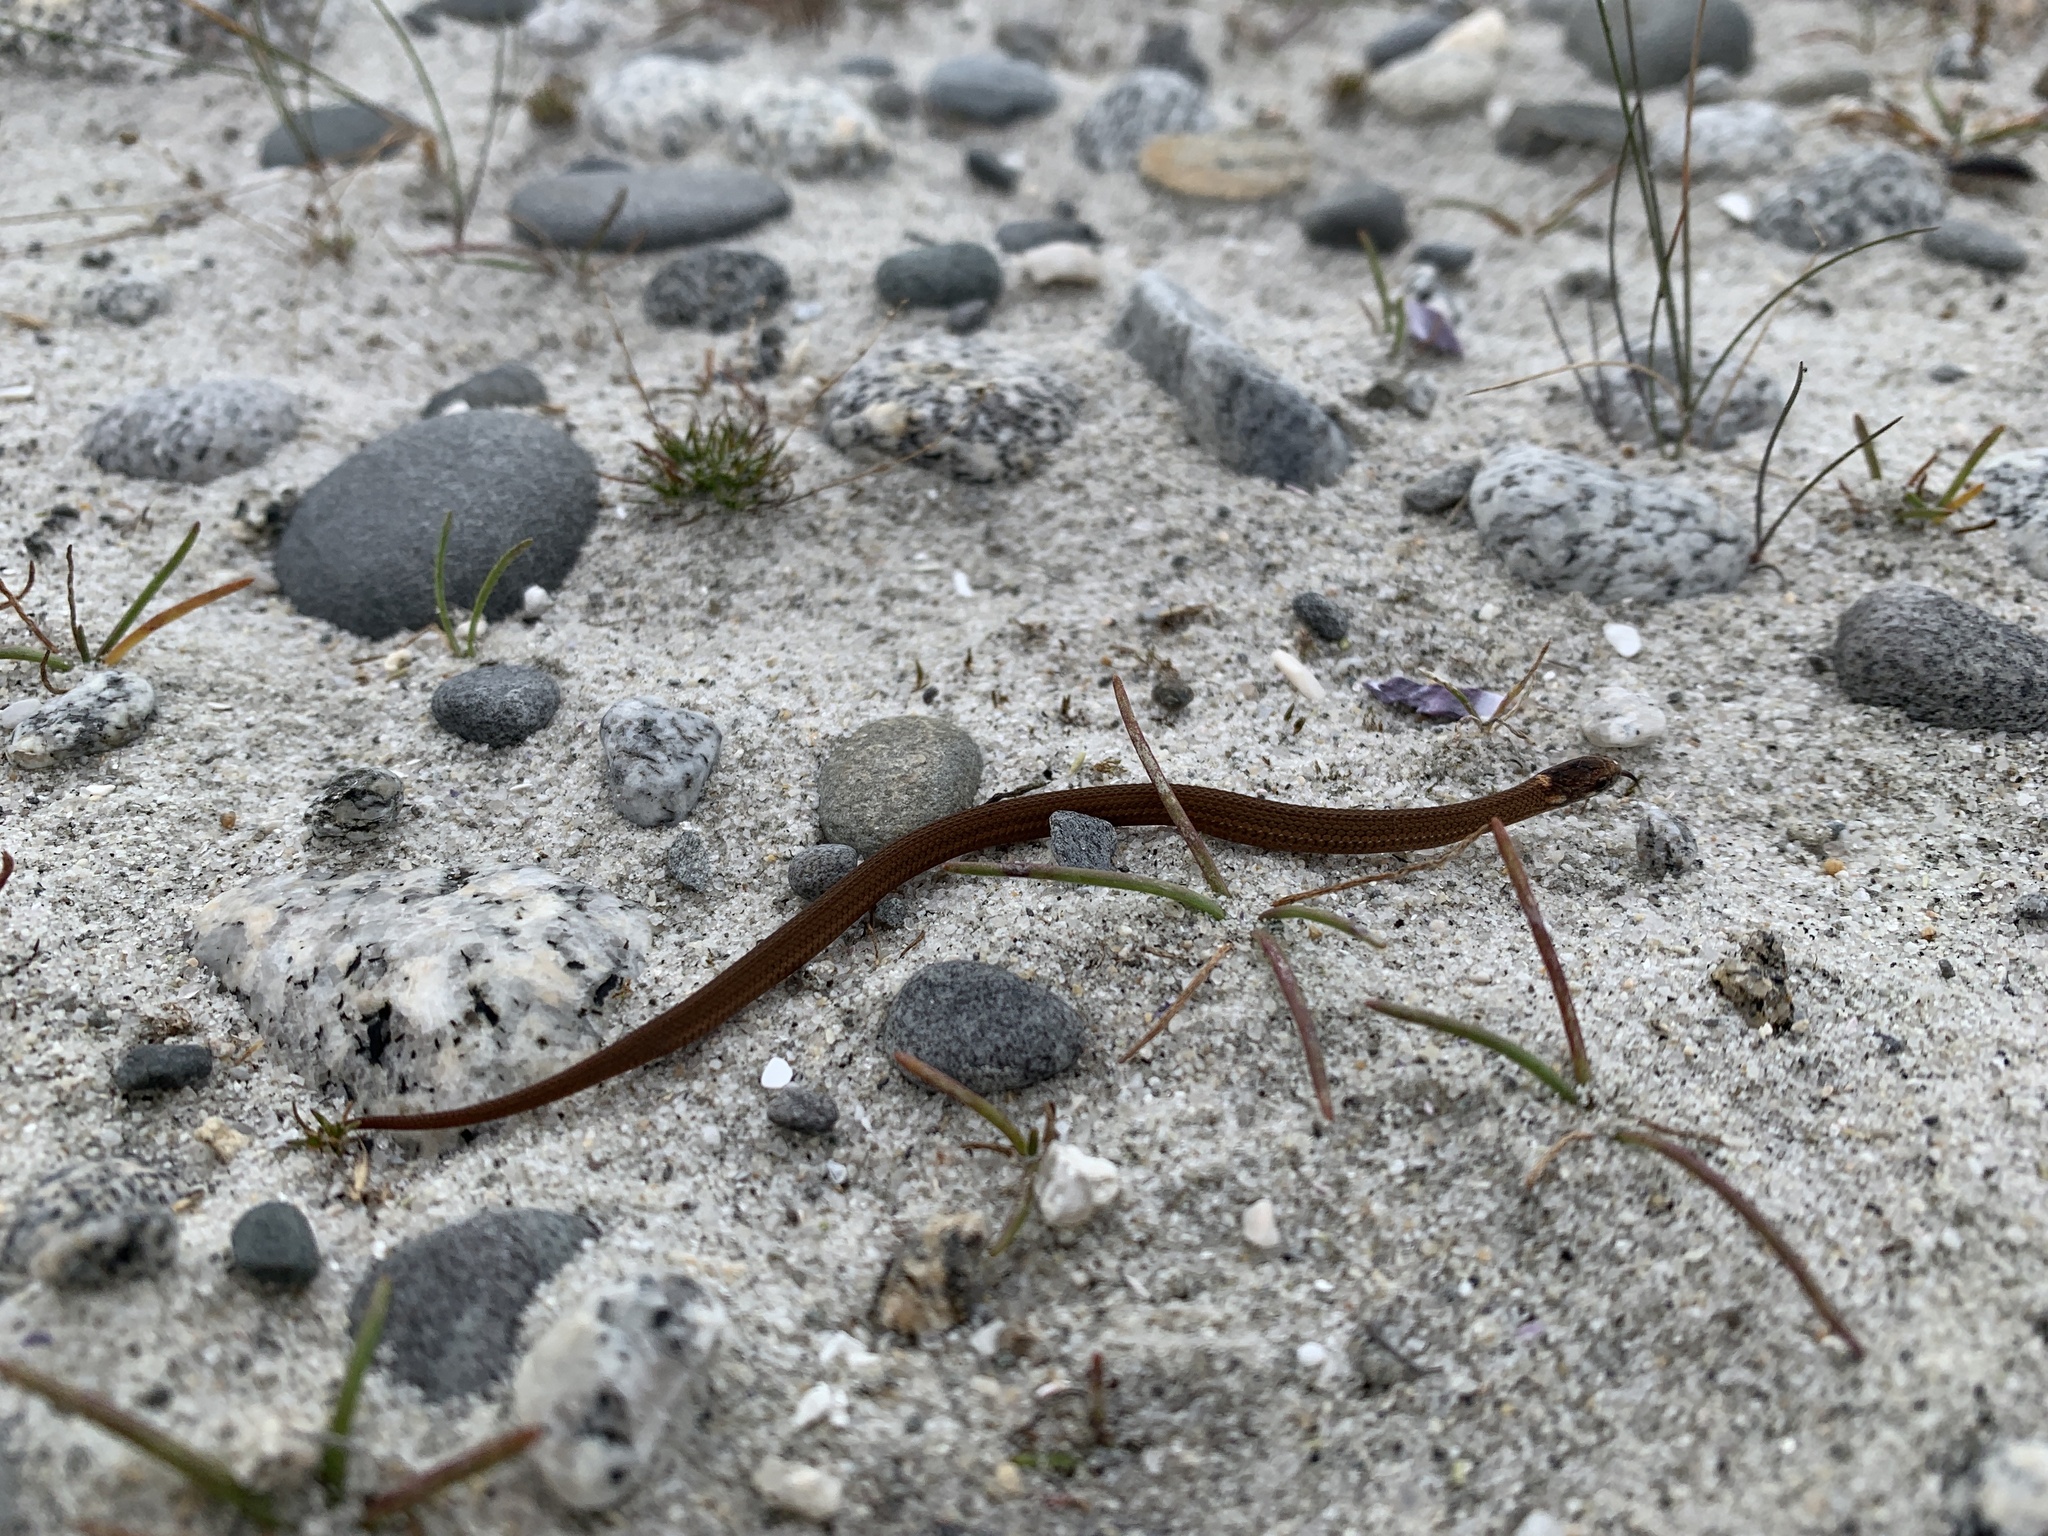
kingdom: Animalia
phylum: Chordata
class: Squamata
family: Colubridae
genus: Storeria
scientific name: Storeria occipitomaculata
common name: Redbelly snake
